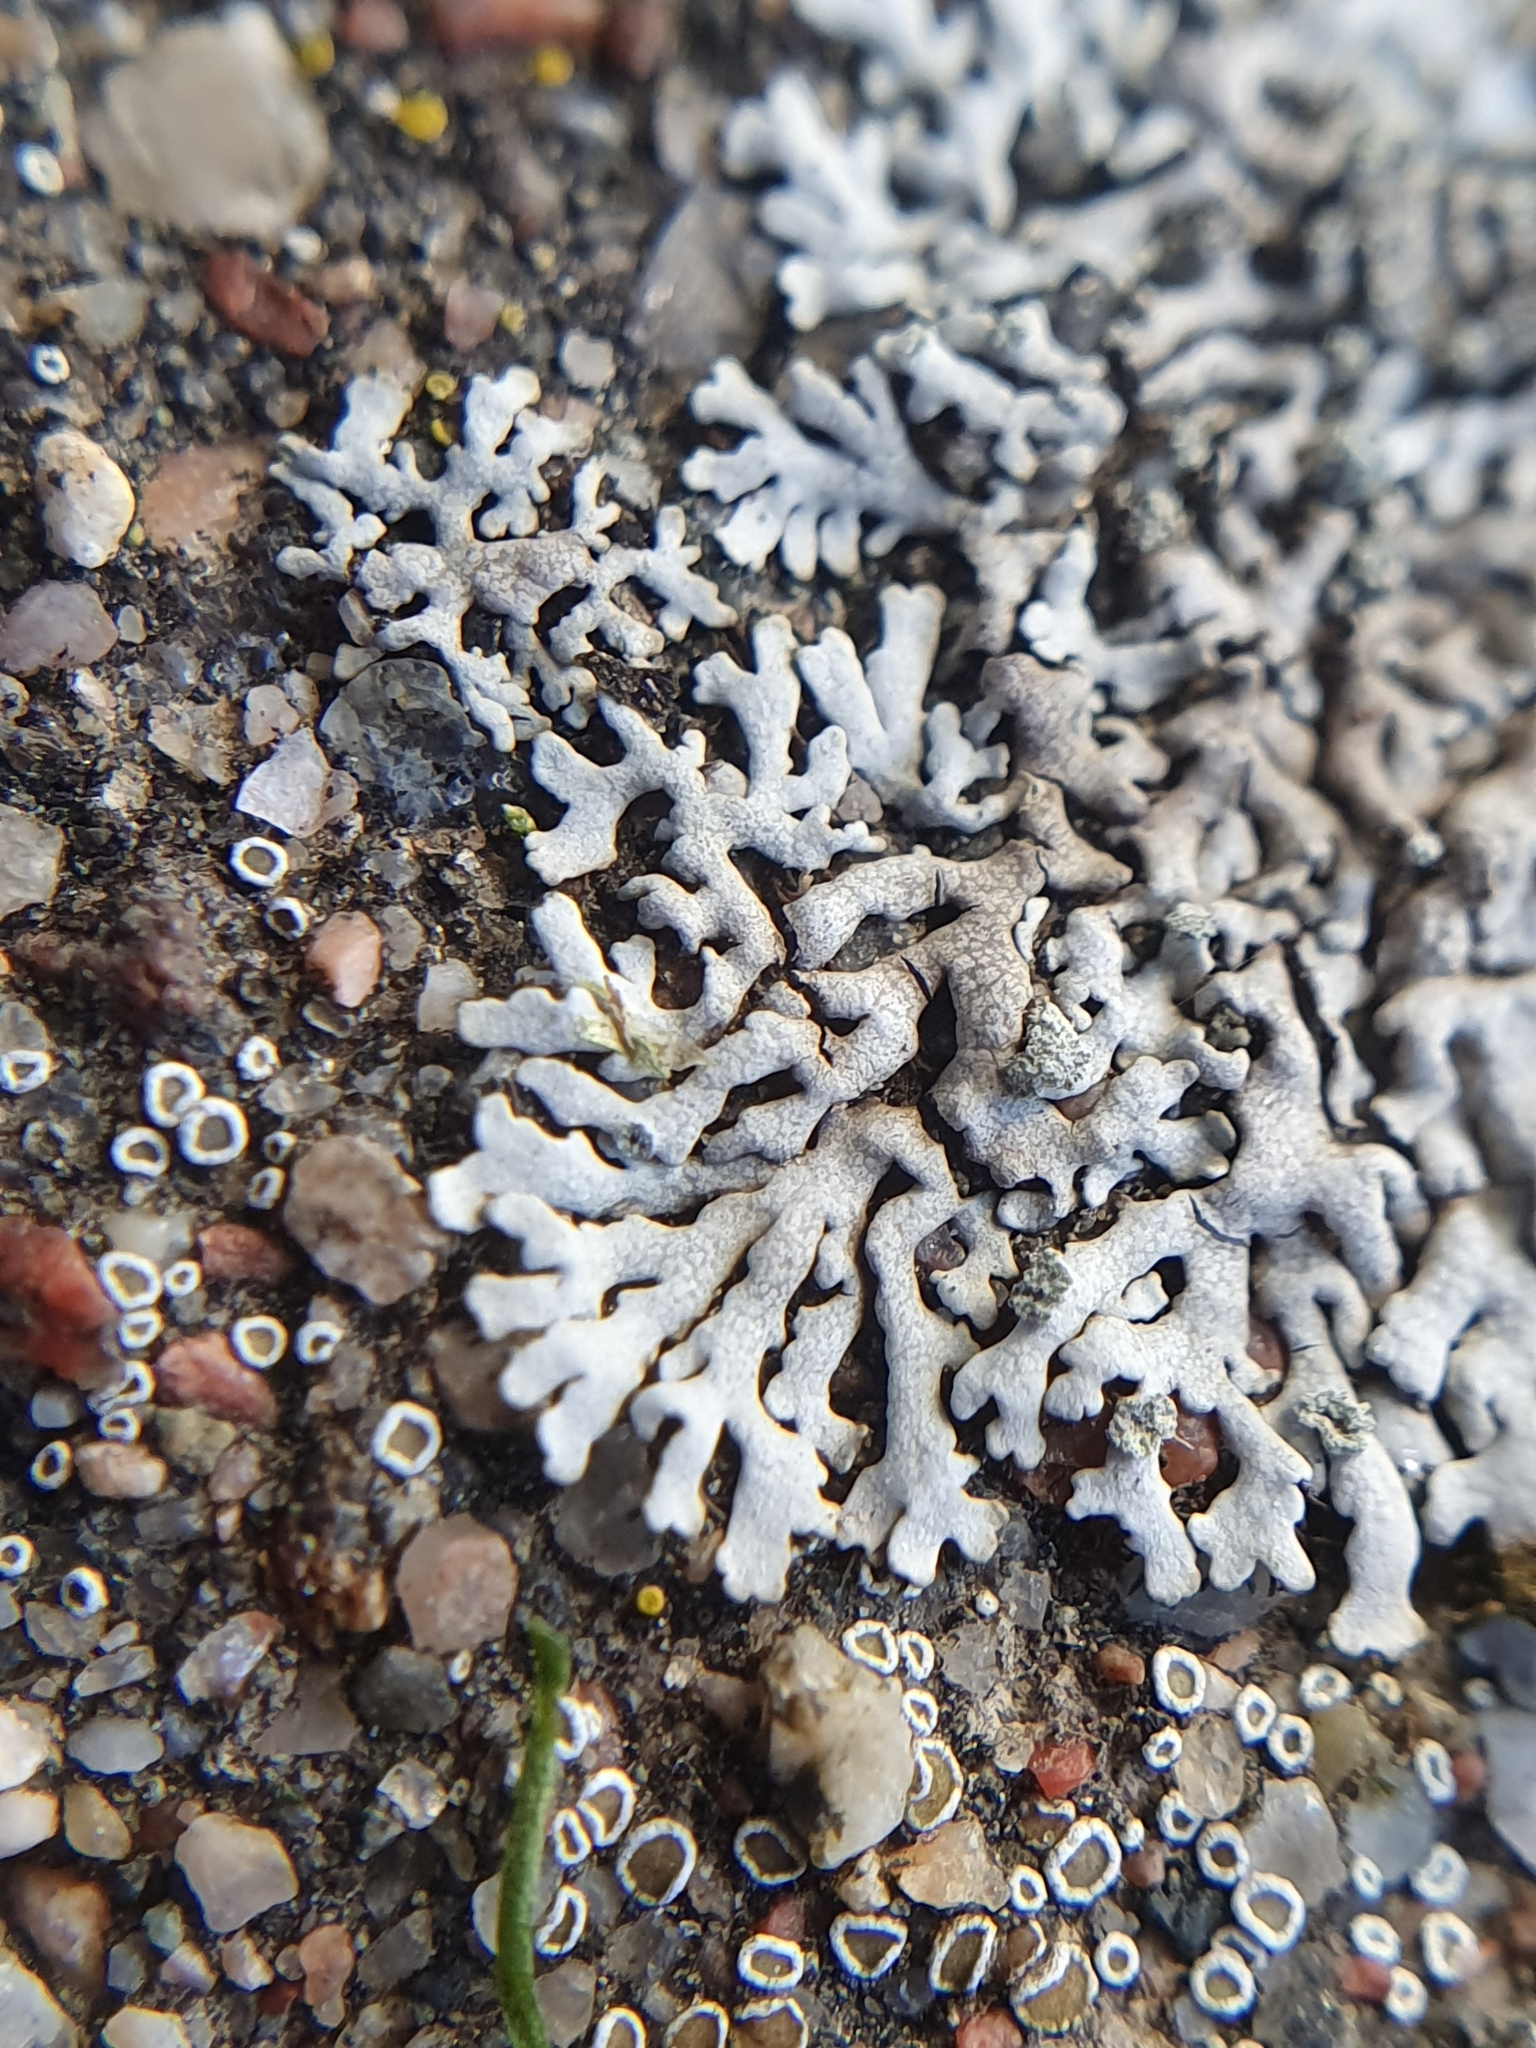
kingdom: Fungi
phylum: Ascomycota
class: Lecanoromycetes
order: Caliciales
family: Physciaceae
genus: Physcia
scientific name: Physcia caesia
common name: Blue-gray rosette lichen
